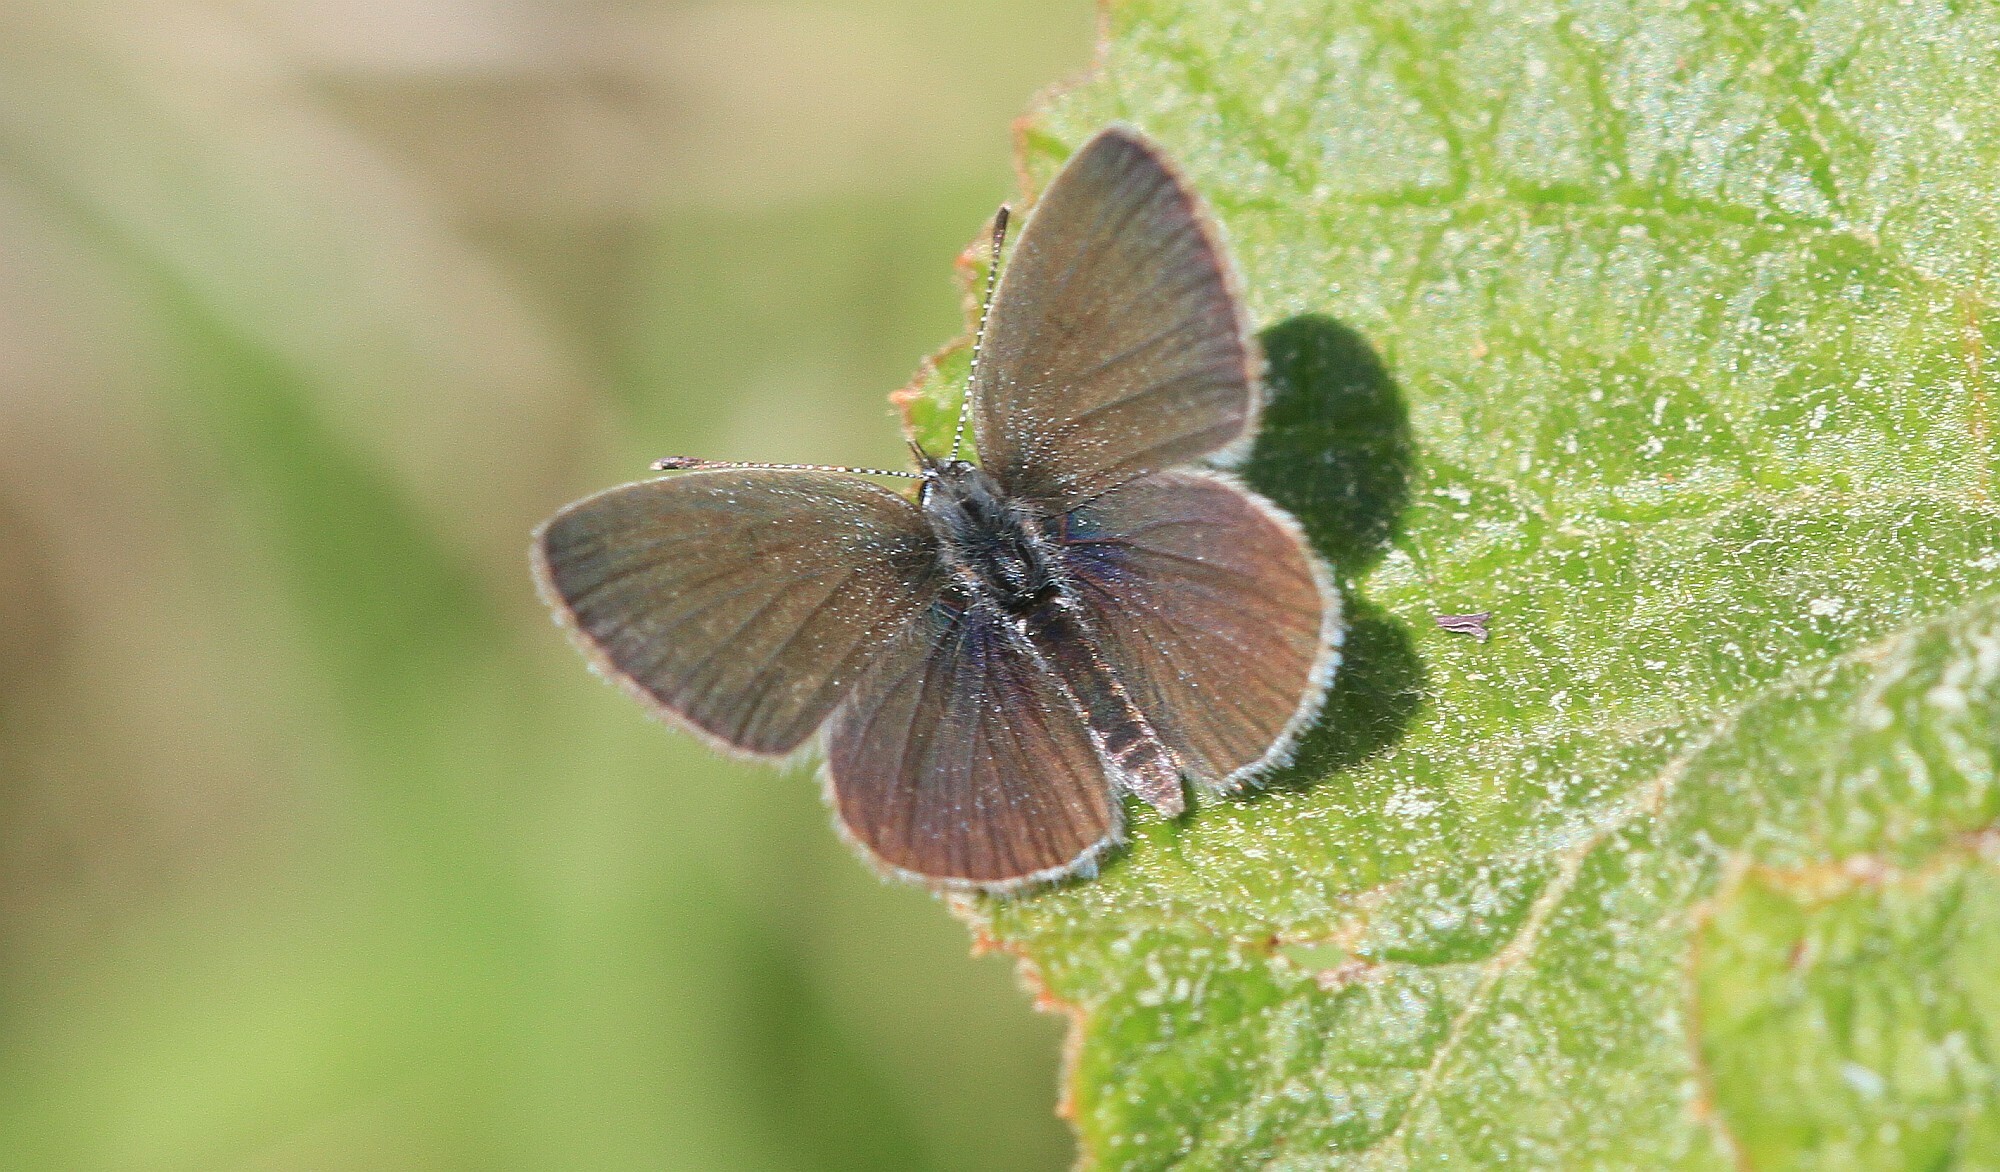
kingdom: Animalia
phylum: Arthropoda
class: Insecta
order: Lepidoptera
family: Lycaenidae
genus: Cupido
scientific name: Cupido minimus
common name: Small blue
